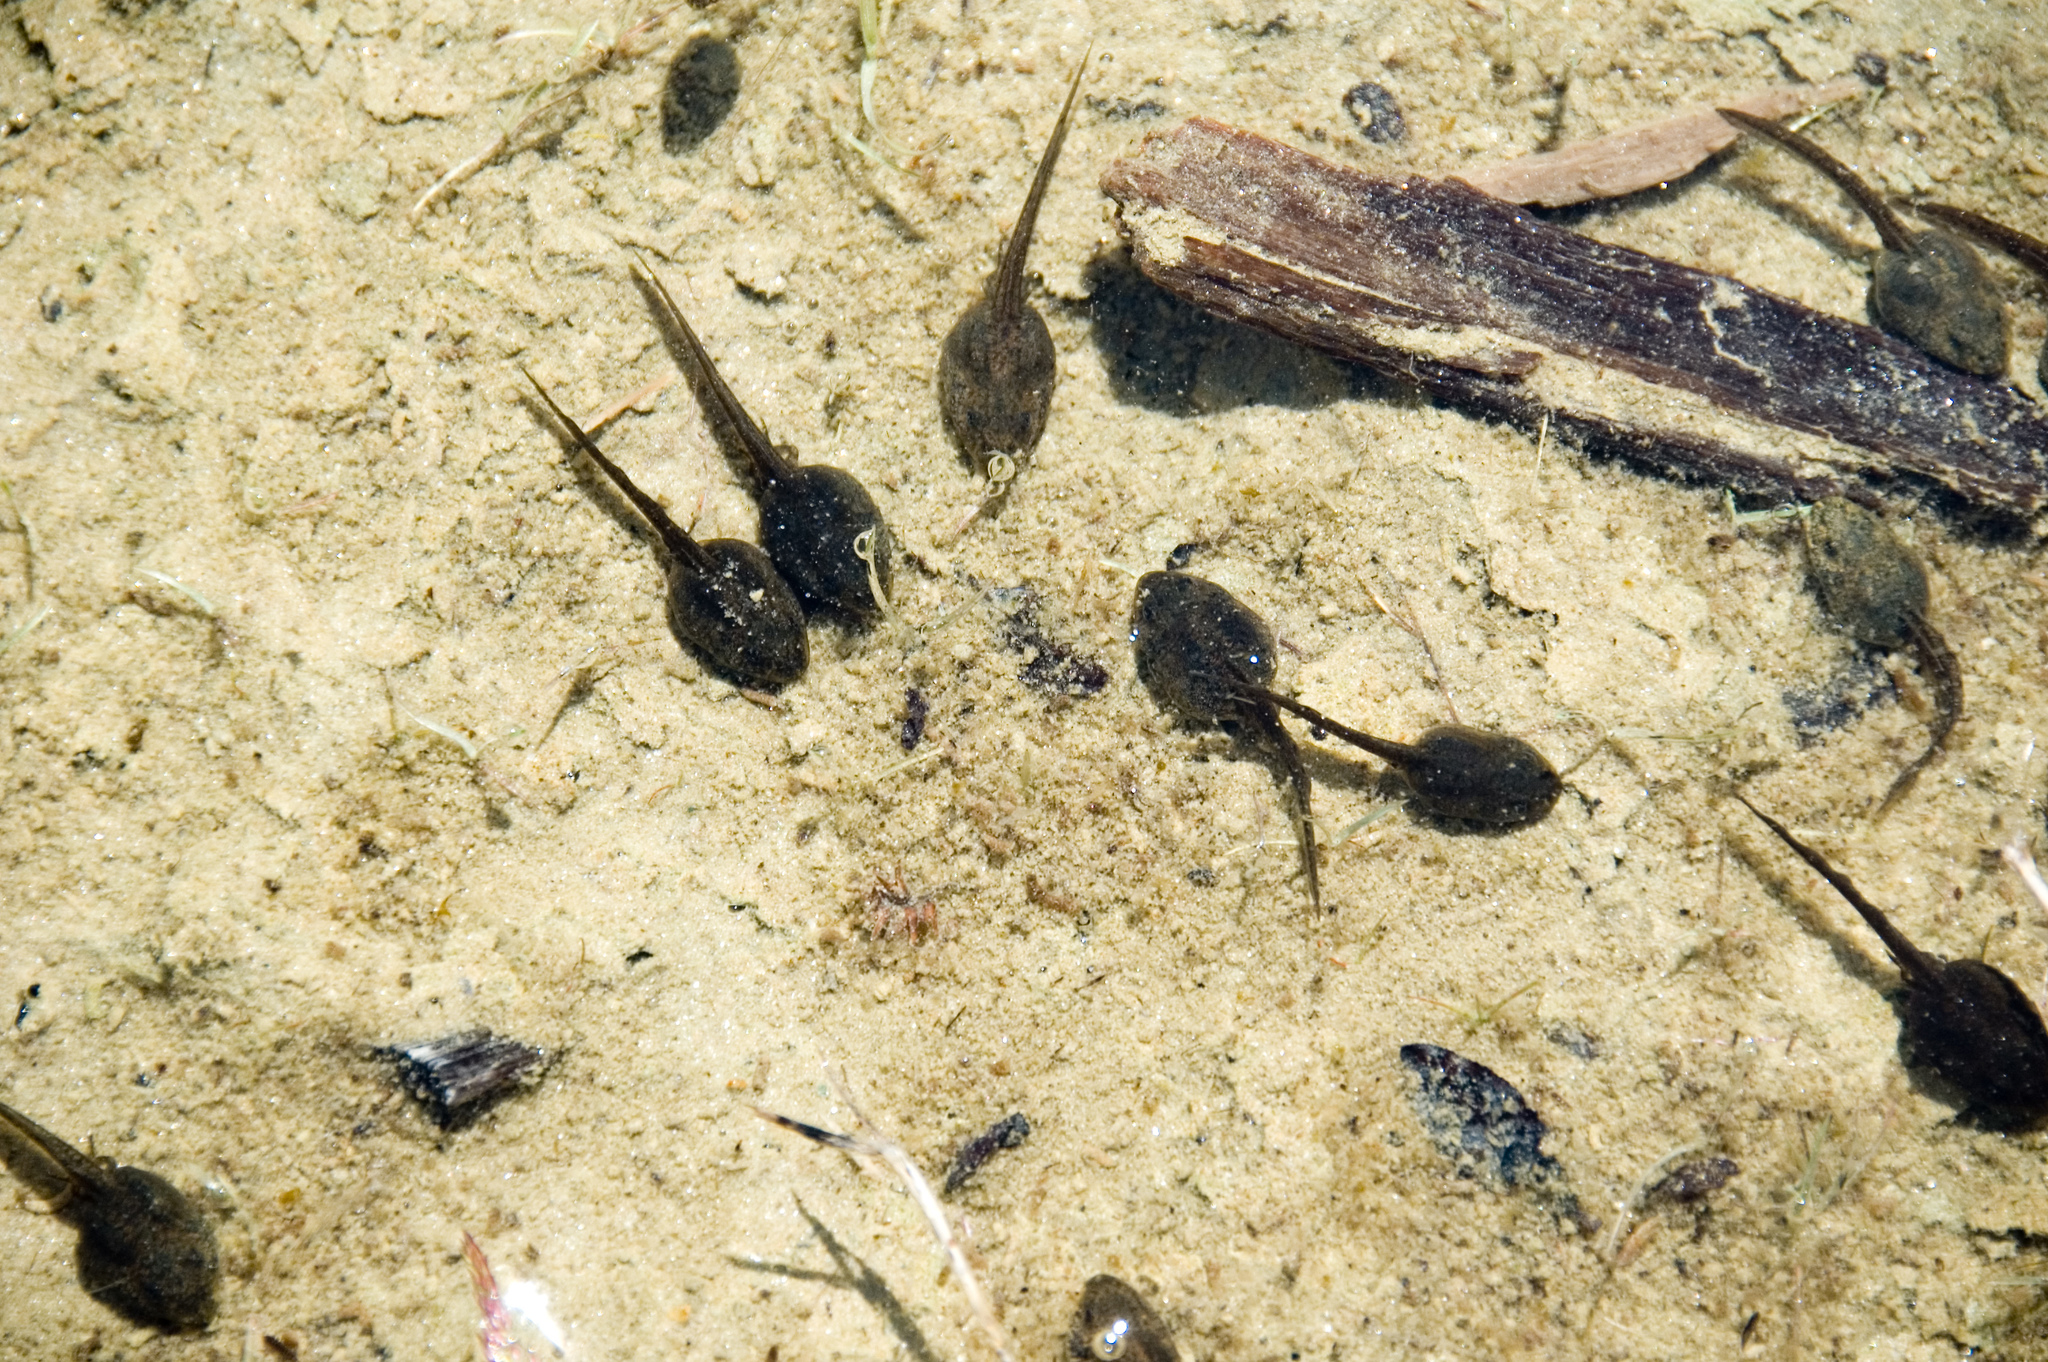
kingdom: Animalia
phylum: Chordata
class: Amphibia
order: Anura
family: Ranidae
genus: Rana
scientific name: Rana temporaria
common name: Common frog
